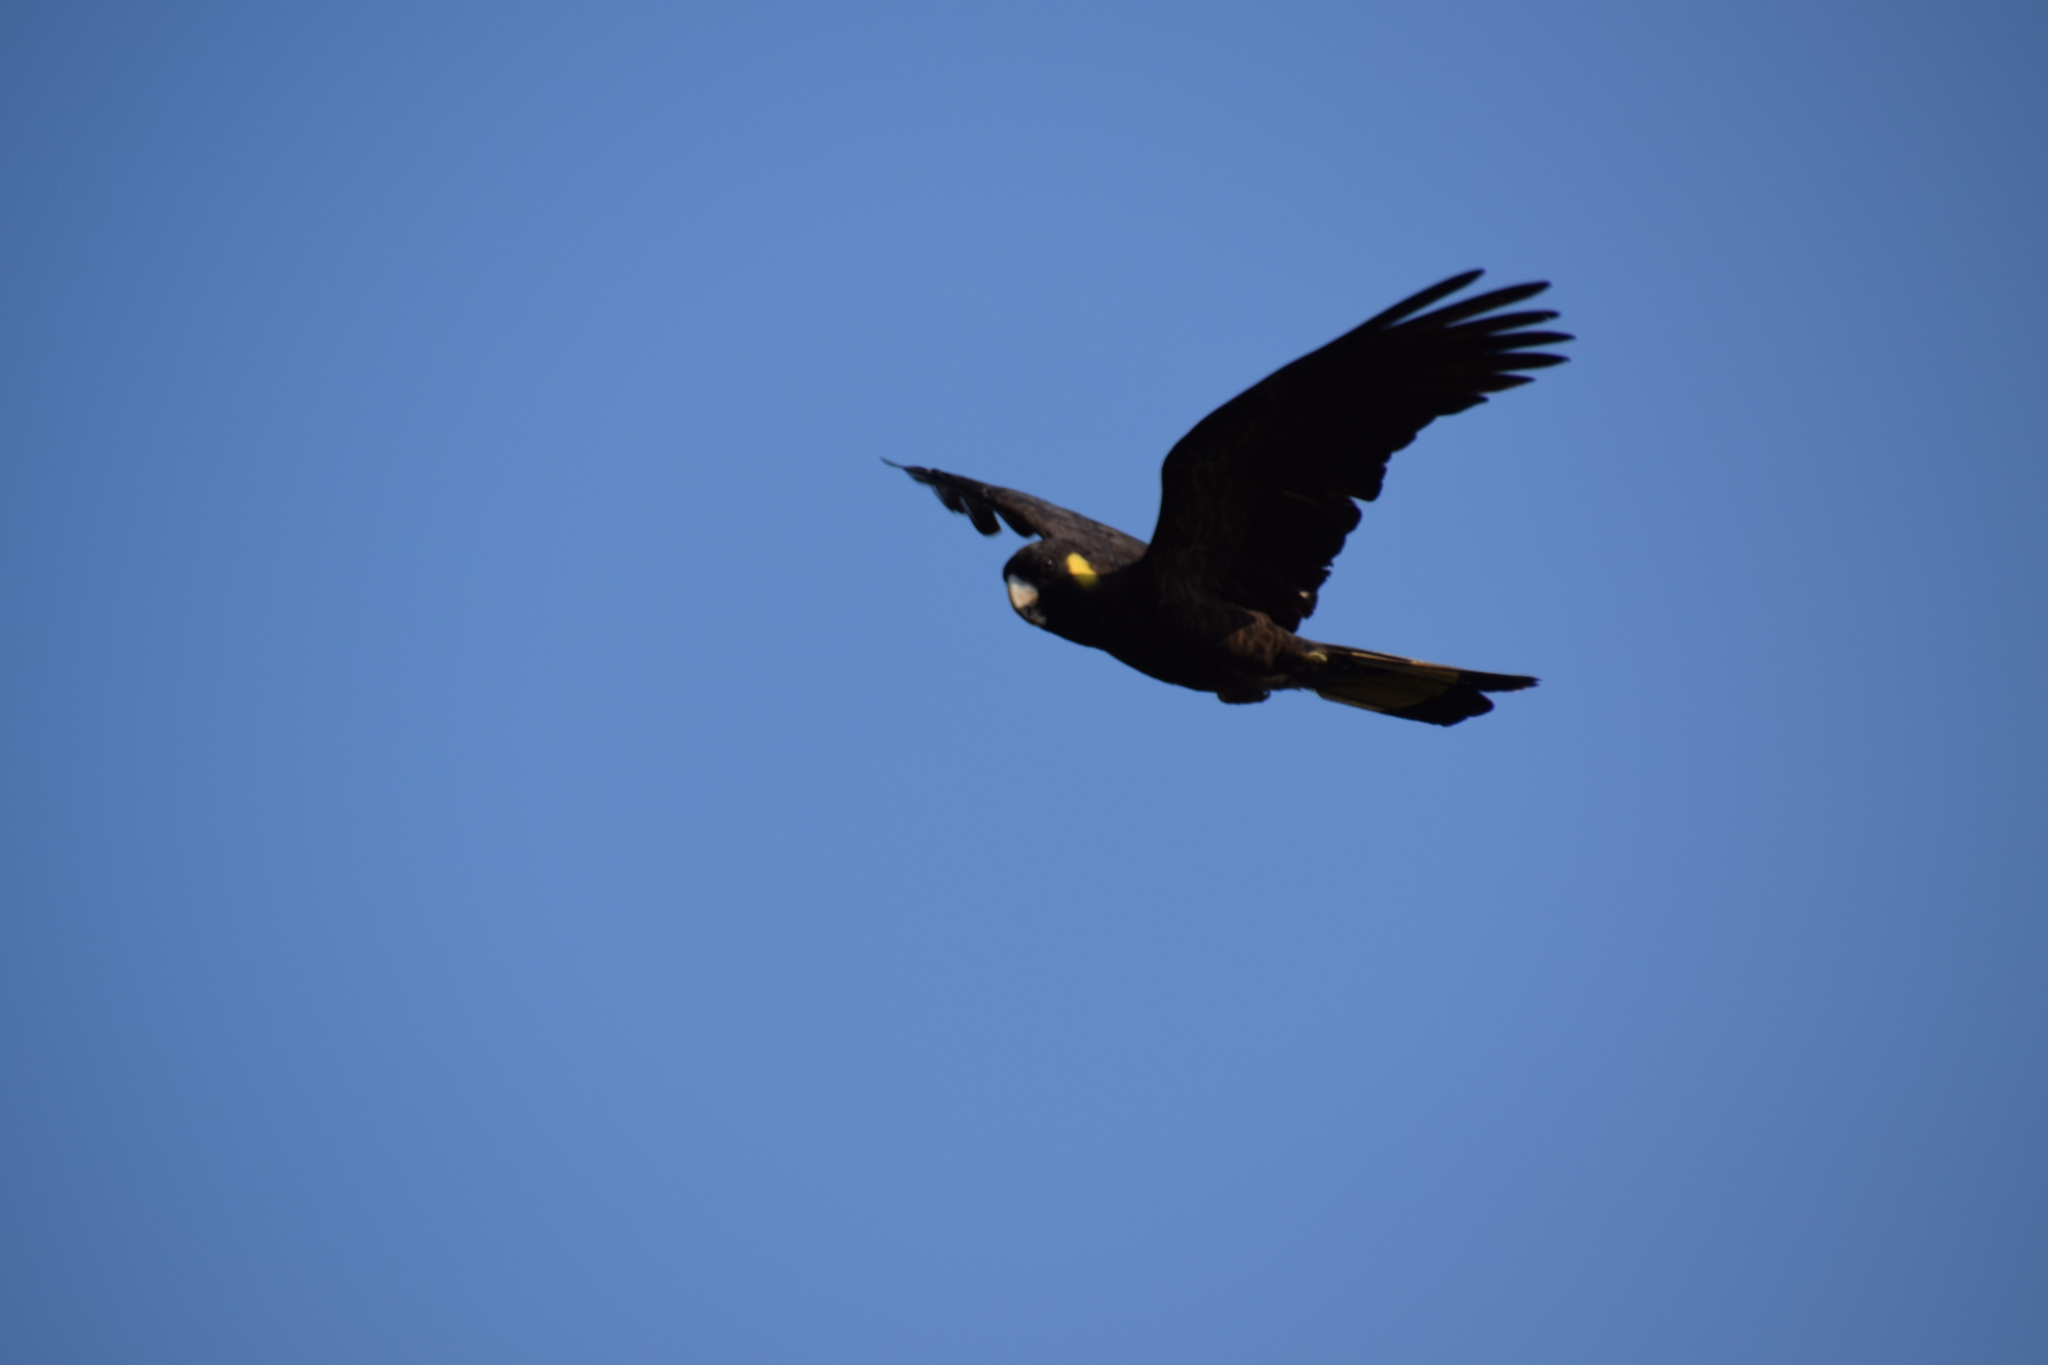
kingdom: Animalia
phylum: Chordata
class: Aves
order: Psittaciformes
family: Cacatuidae
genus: Zanda
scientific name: Zanda funerea
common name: Yellow-tailed black-cockatoo
